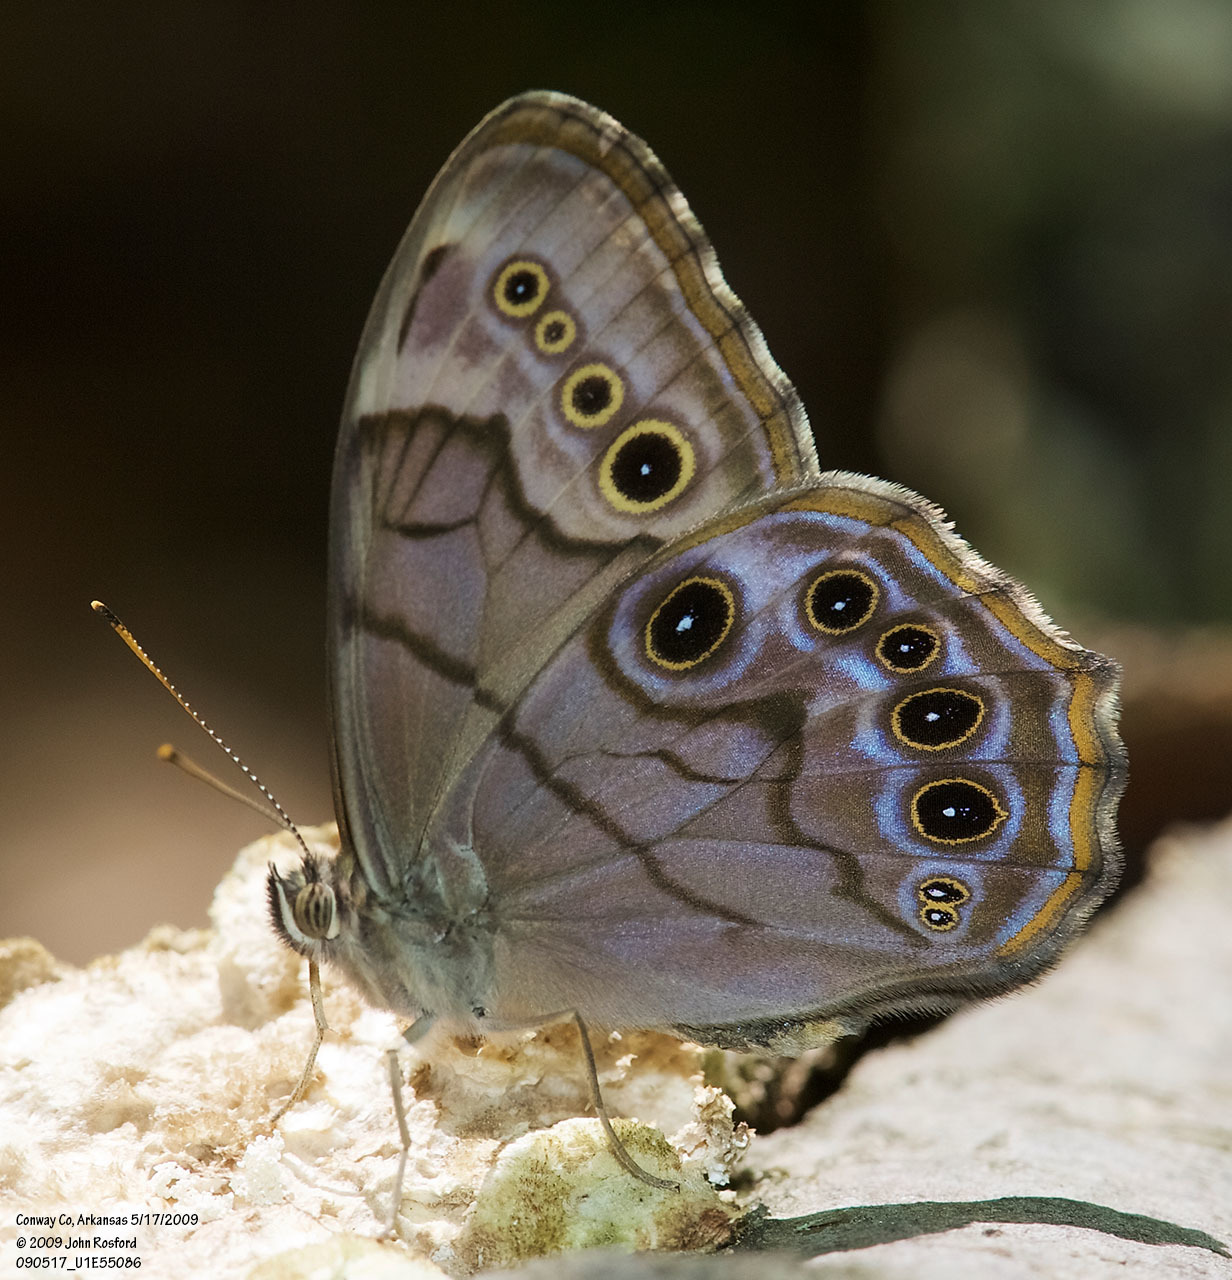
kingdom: Animalia
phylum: Arthropoda
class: Insecta
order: Lepidoptera
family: Nymphalidae
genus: Lethe
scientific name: Lethe anthedon
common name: Northern pearly-eye
